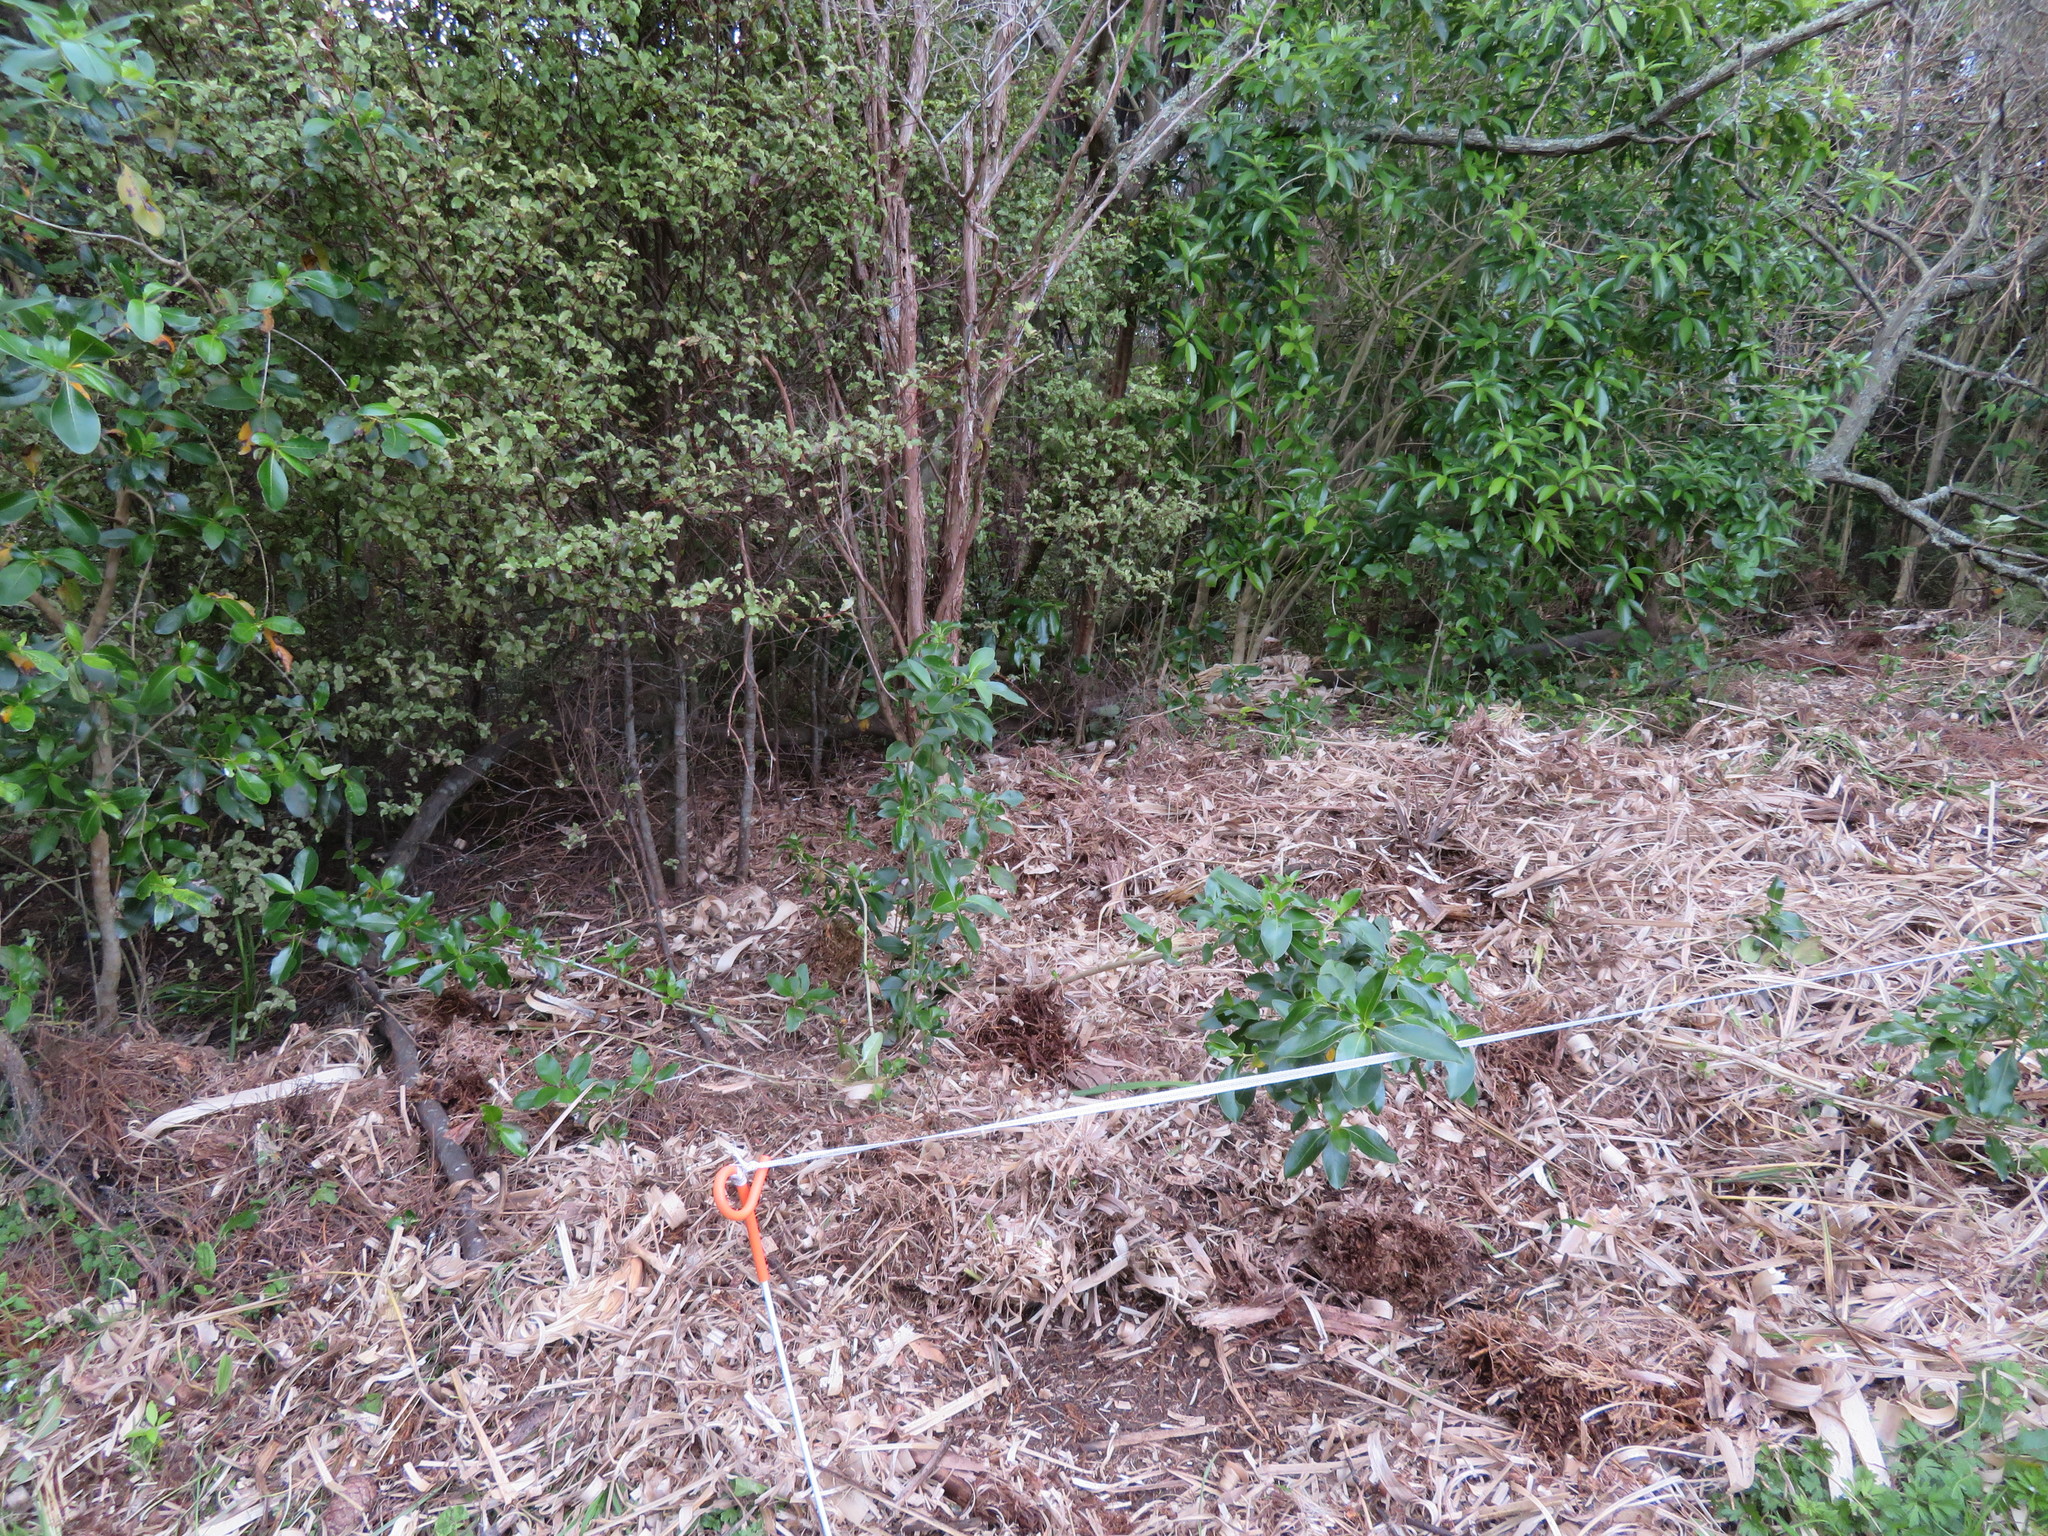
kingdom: Plantae
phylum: Tracheophyta
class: Magnoliopsida
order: Gentianales
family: Rubiaceae
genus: Coprosma
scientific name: Coprosma robusta
